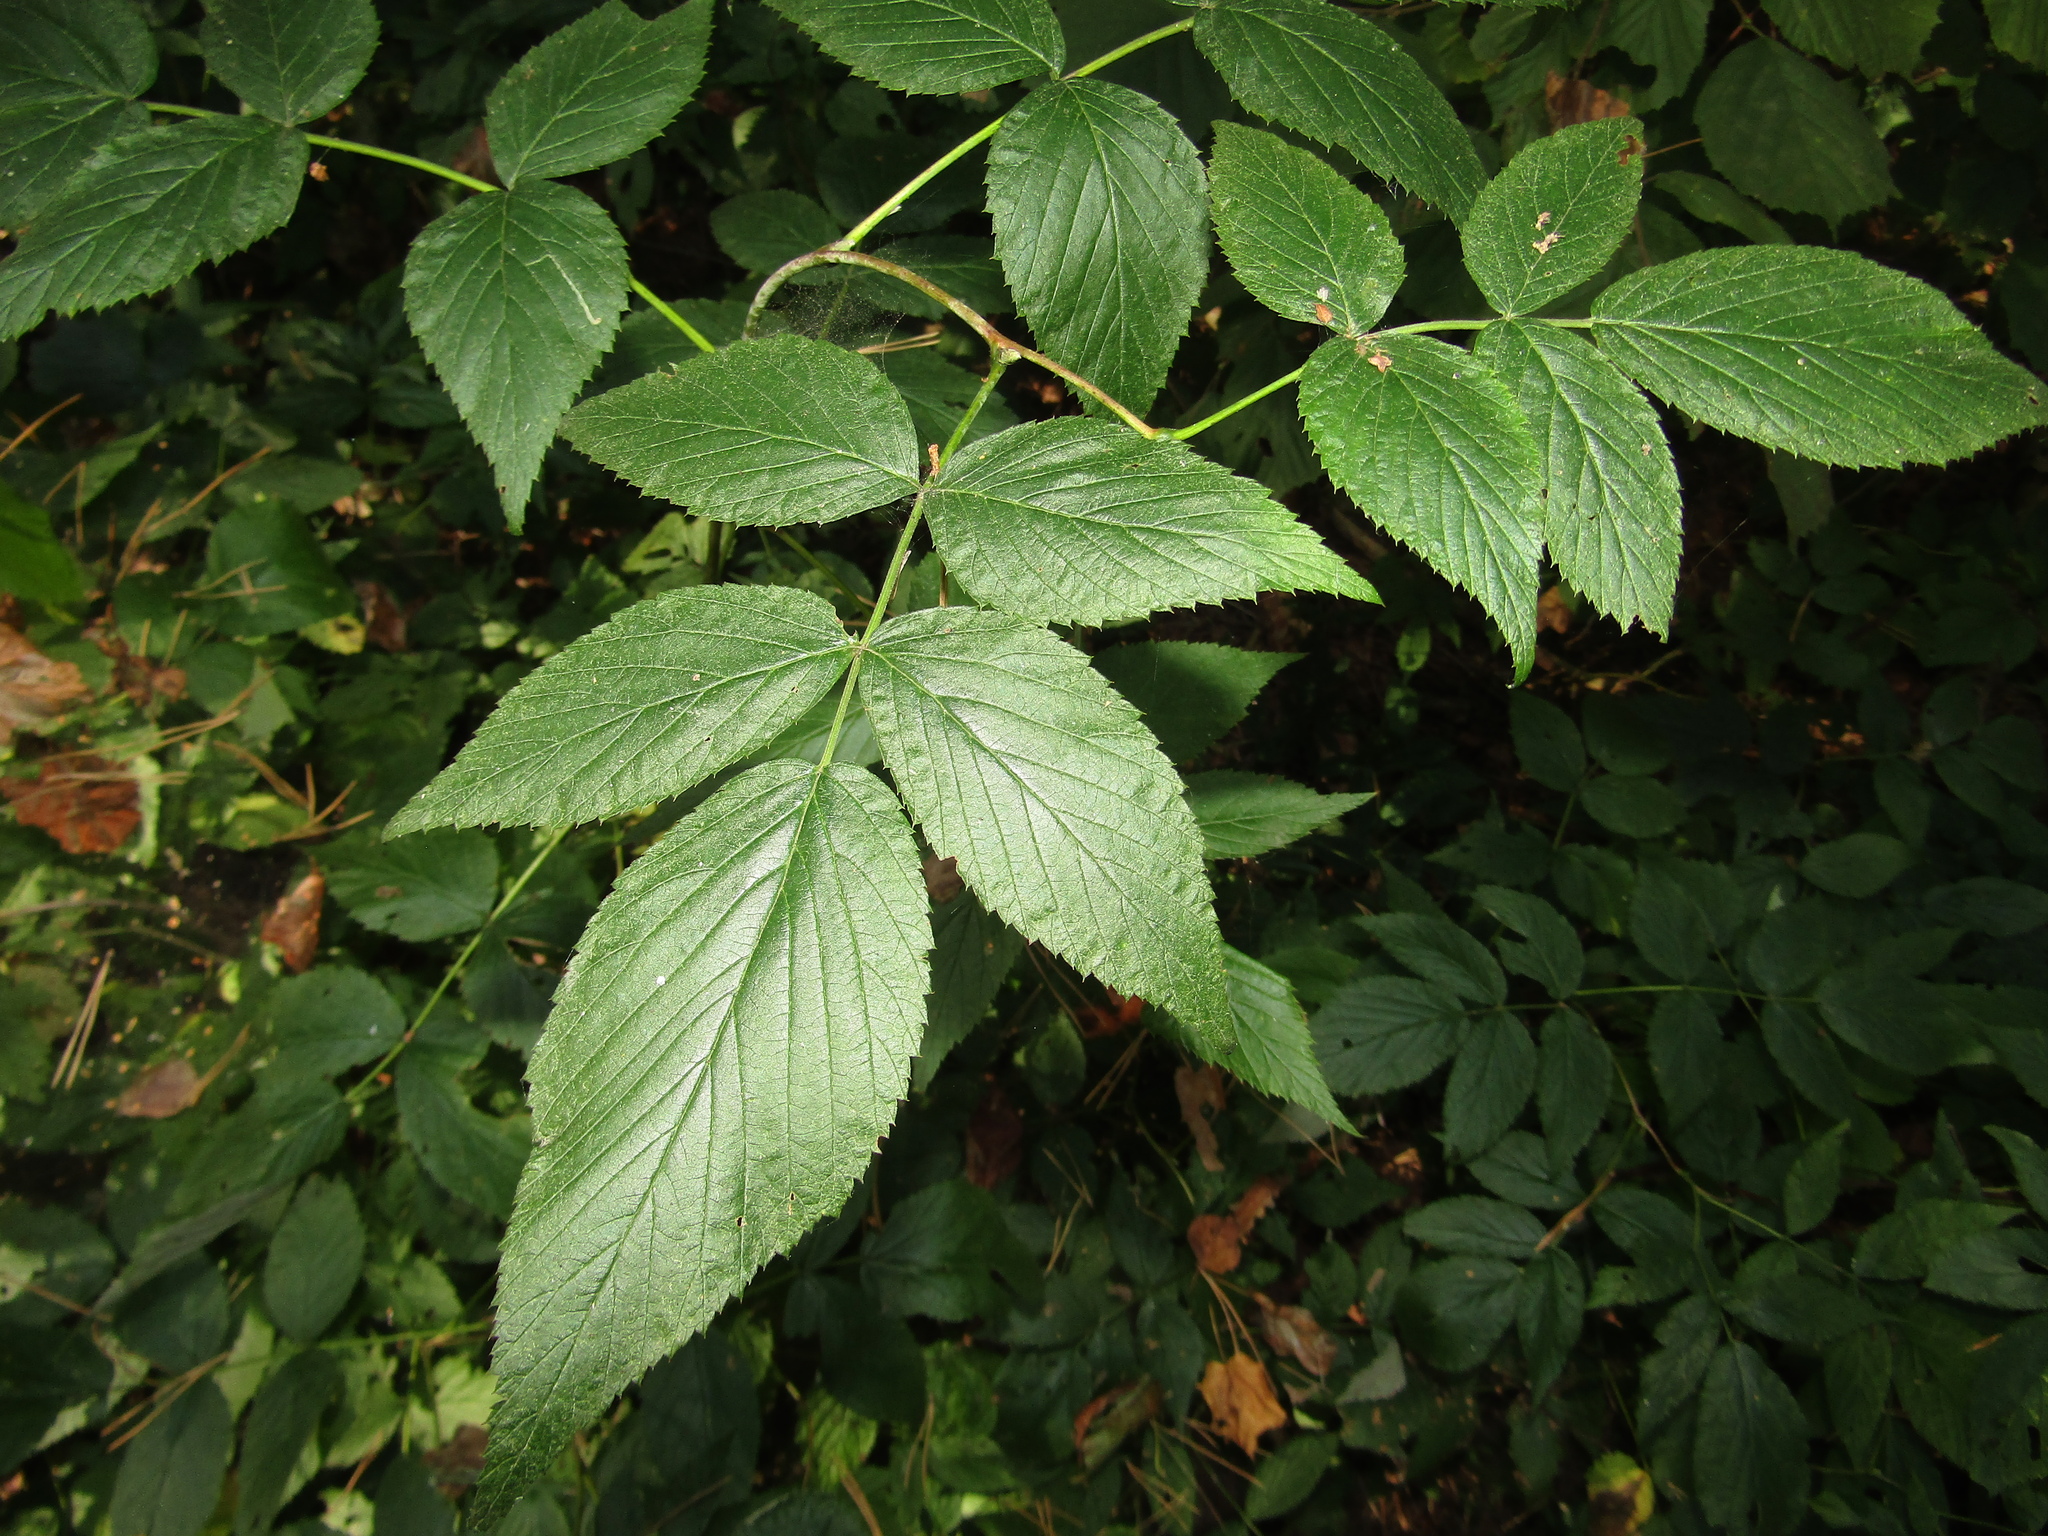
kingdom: Plantae
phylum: Tracheophyta
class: Magnoliopsida
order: Rosales
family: Rosaceae
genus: Rubus
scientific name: Rubus idaeus
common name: Raspberry
